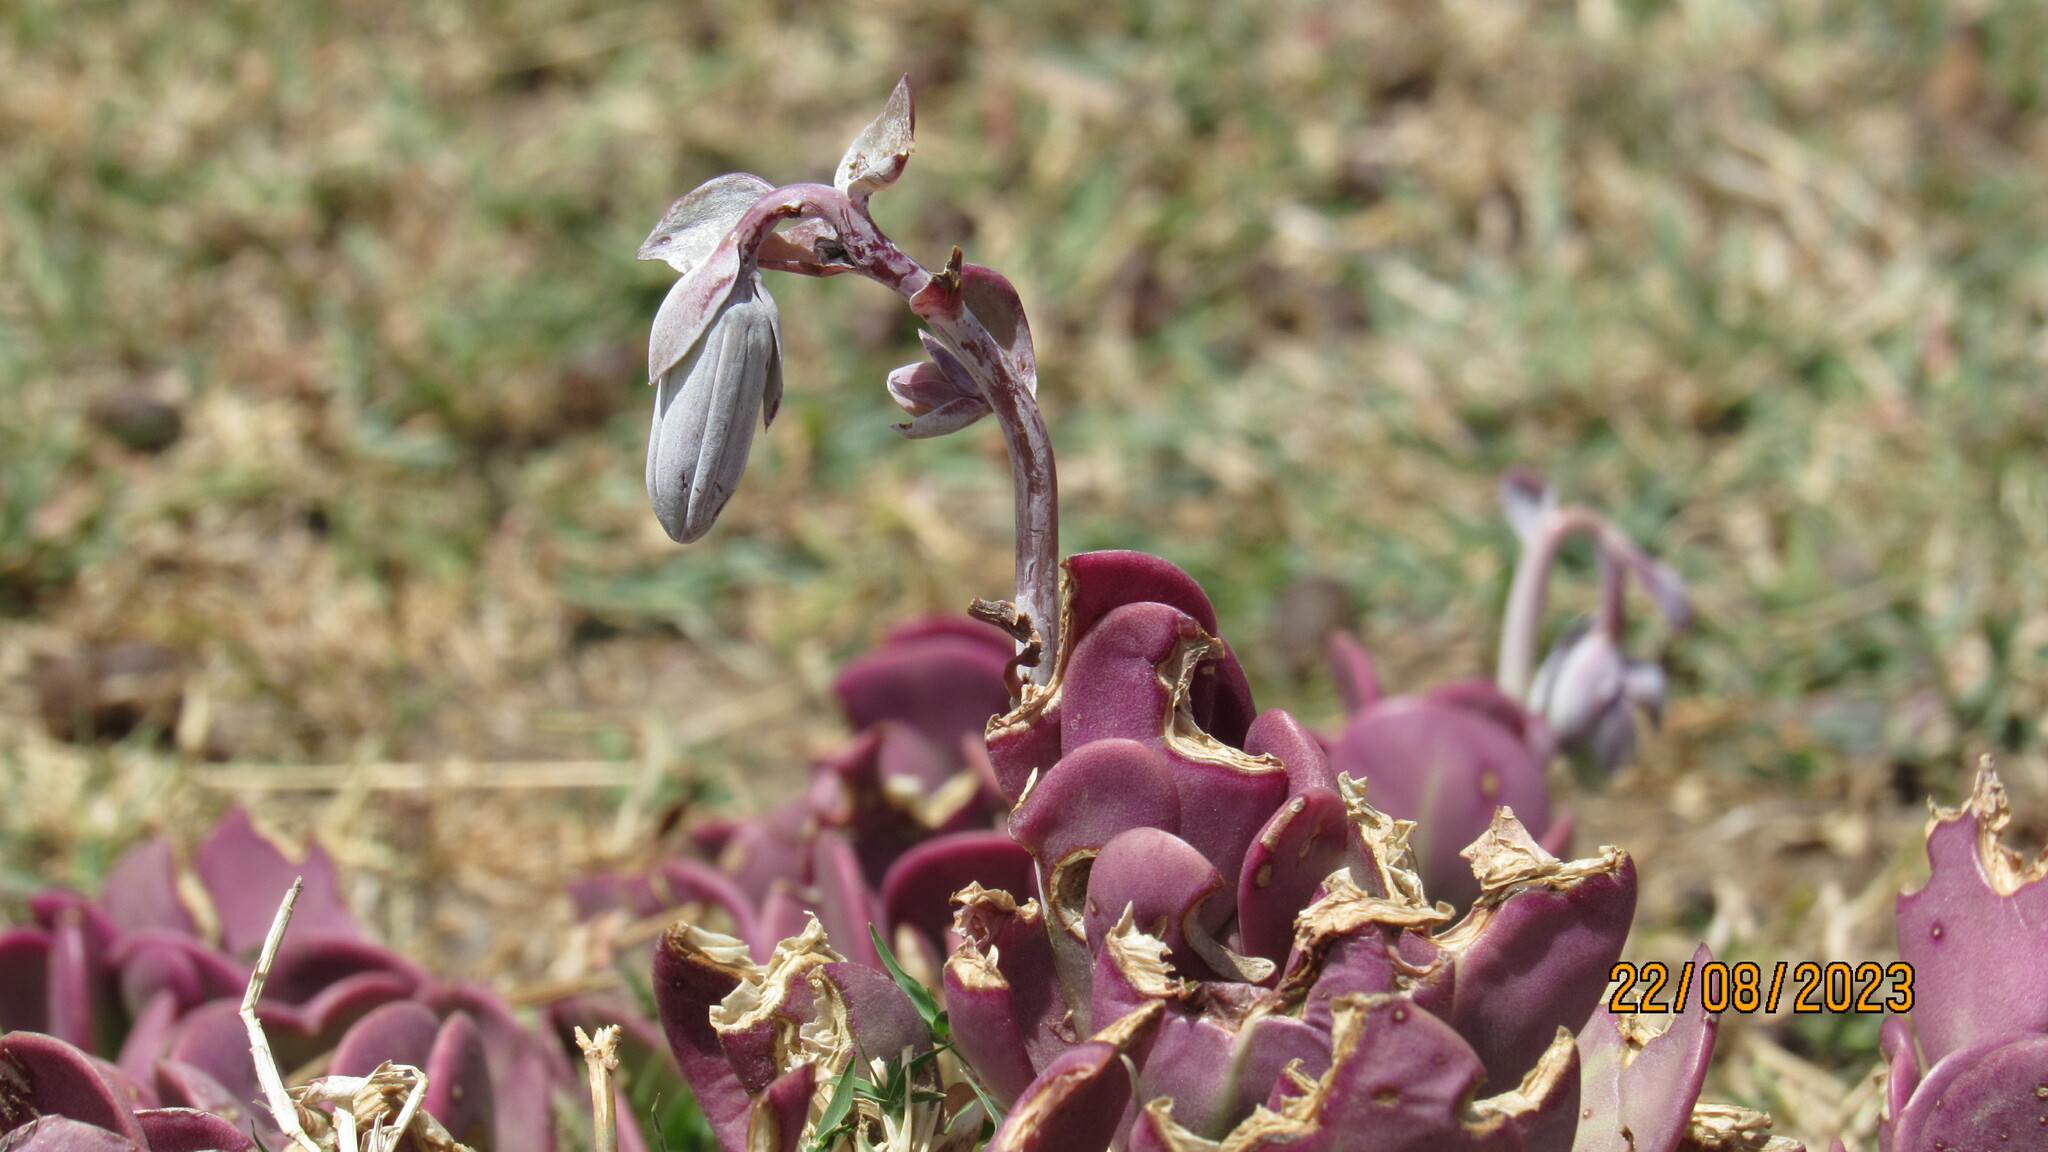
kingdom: Plantae
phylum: Tracheophyta
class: Magnoliopsida
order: Asterales
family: Asteraceae
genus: Kleinia
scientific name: Kleinia petraea
